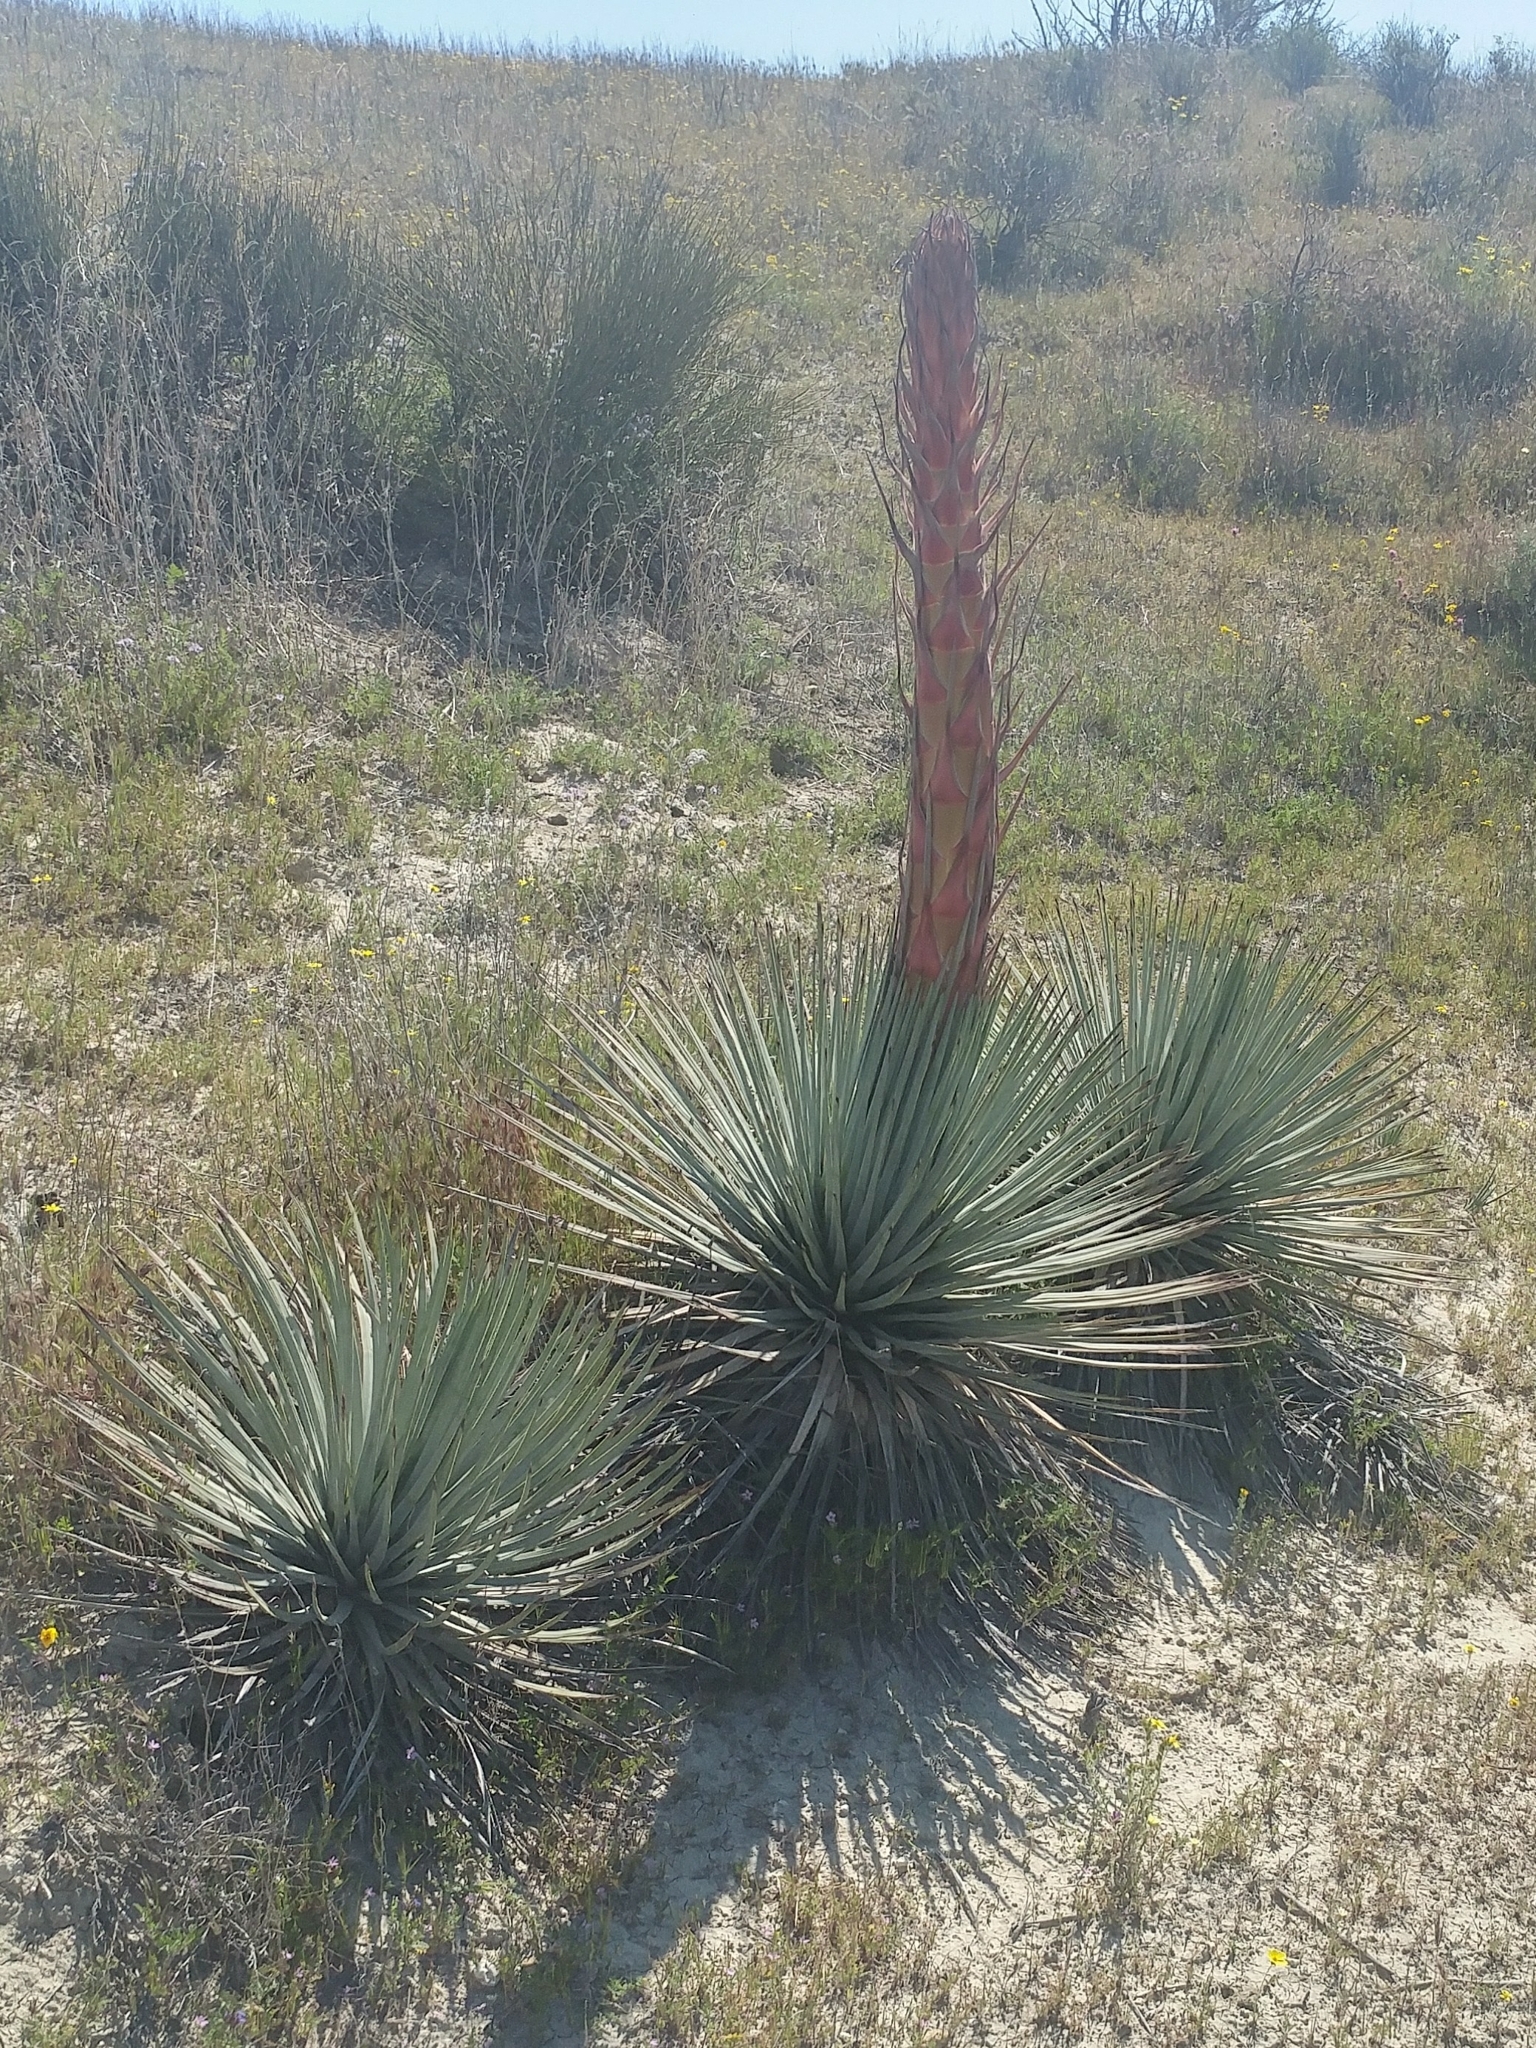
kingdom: Plantae
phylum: Tracheophyta
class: Liliopsida
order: Asparagales
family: Asparagaceae
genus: Hesperoyucca
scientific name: Hesperoyucca whipplei
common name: Our lord's-candle
